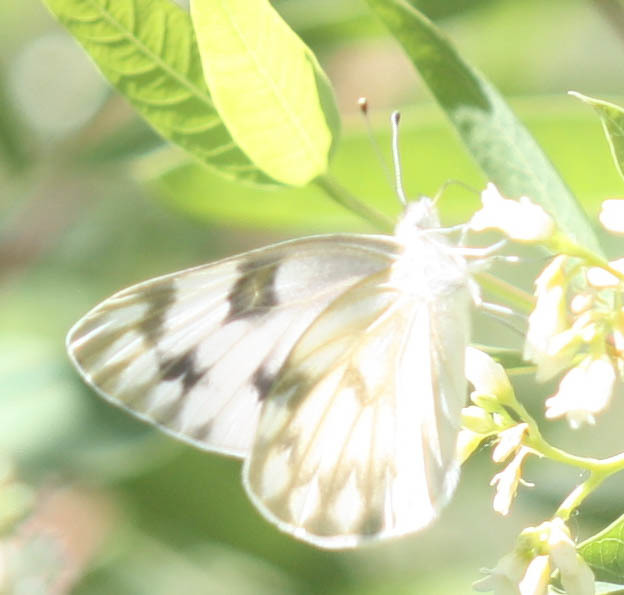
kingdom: Animalia
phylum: Arthropoda
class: Insecta
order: Lepidoptera
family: Pieridae
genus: Pontia
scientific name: Pontia protodice
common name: Checkered white
